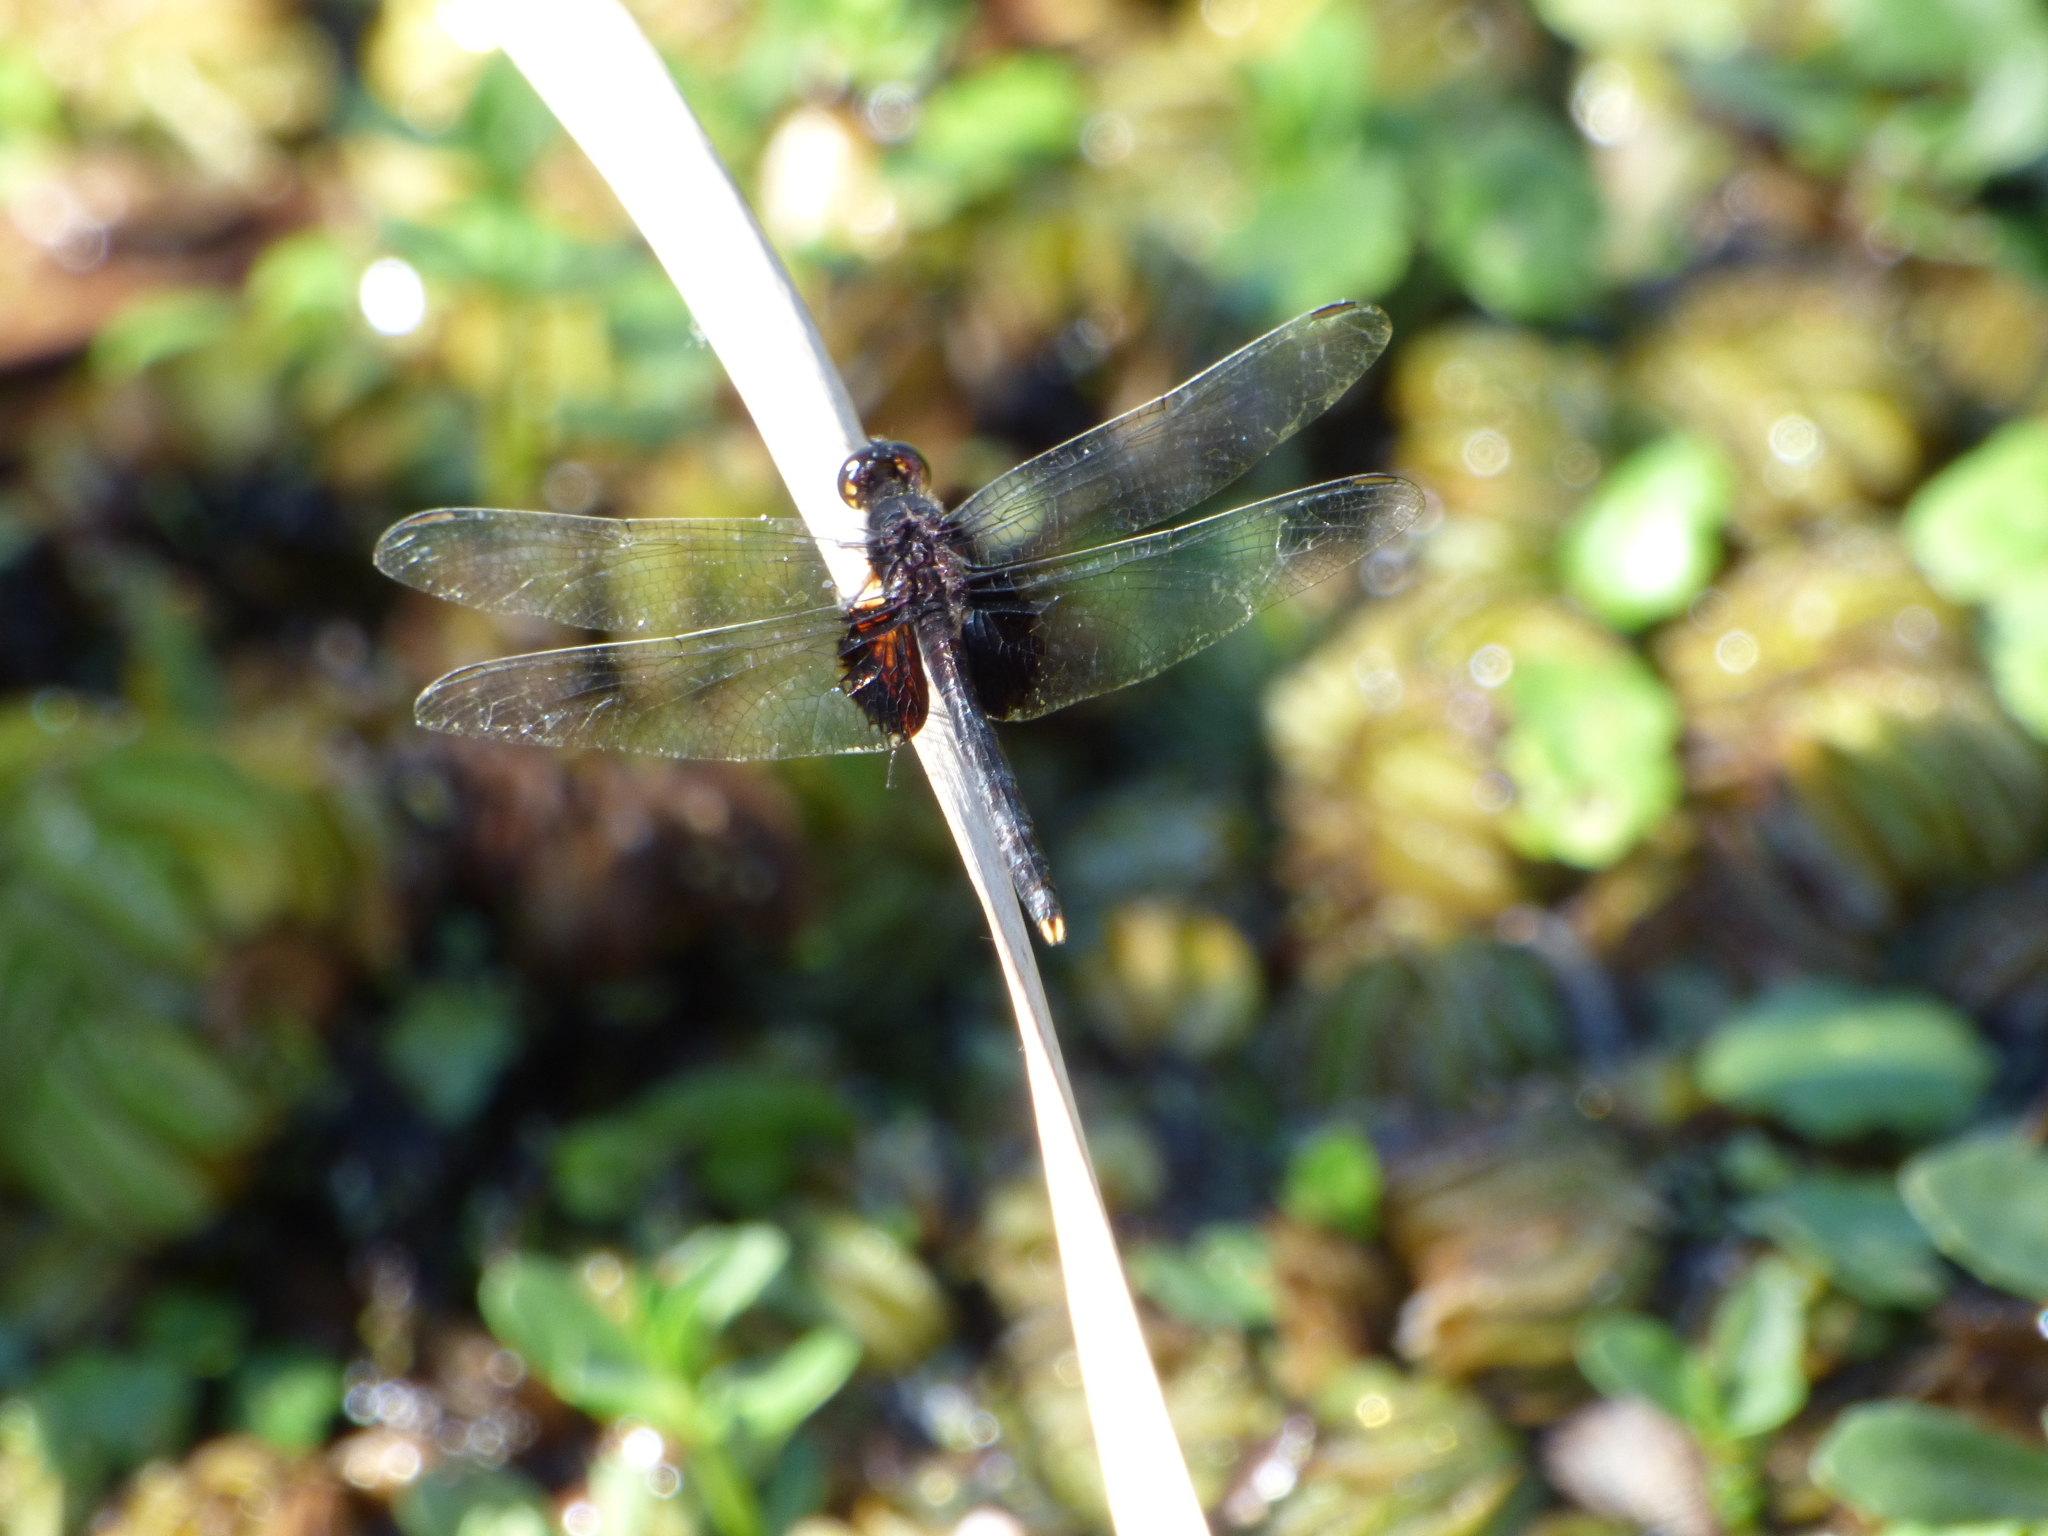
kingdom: Animalia
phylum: Arthropoda
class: Insecta
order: Odonata
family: Libellulidae
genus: Erythemis
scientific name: Erythemis attala
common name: Black pondhawk
